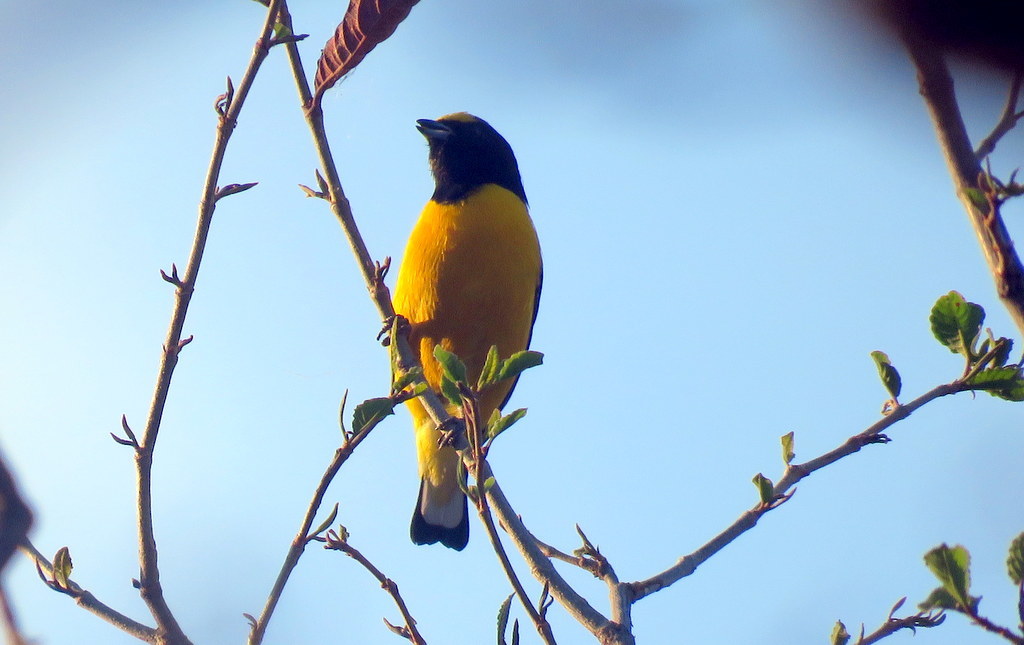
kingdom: Animalia
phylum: Chordata
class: Aves
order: Passeriformes
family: Fringillidae
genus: Euphonia
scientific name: Euphonia chlorotica
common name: Purple-throated euphonia
